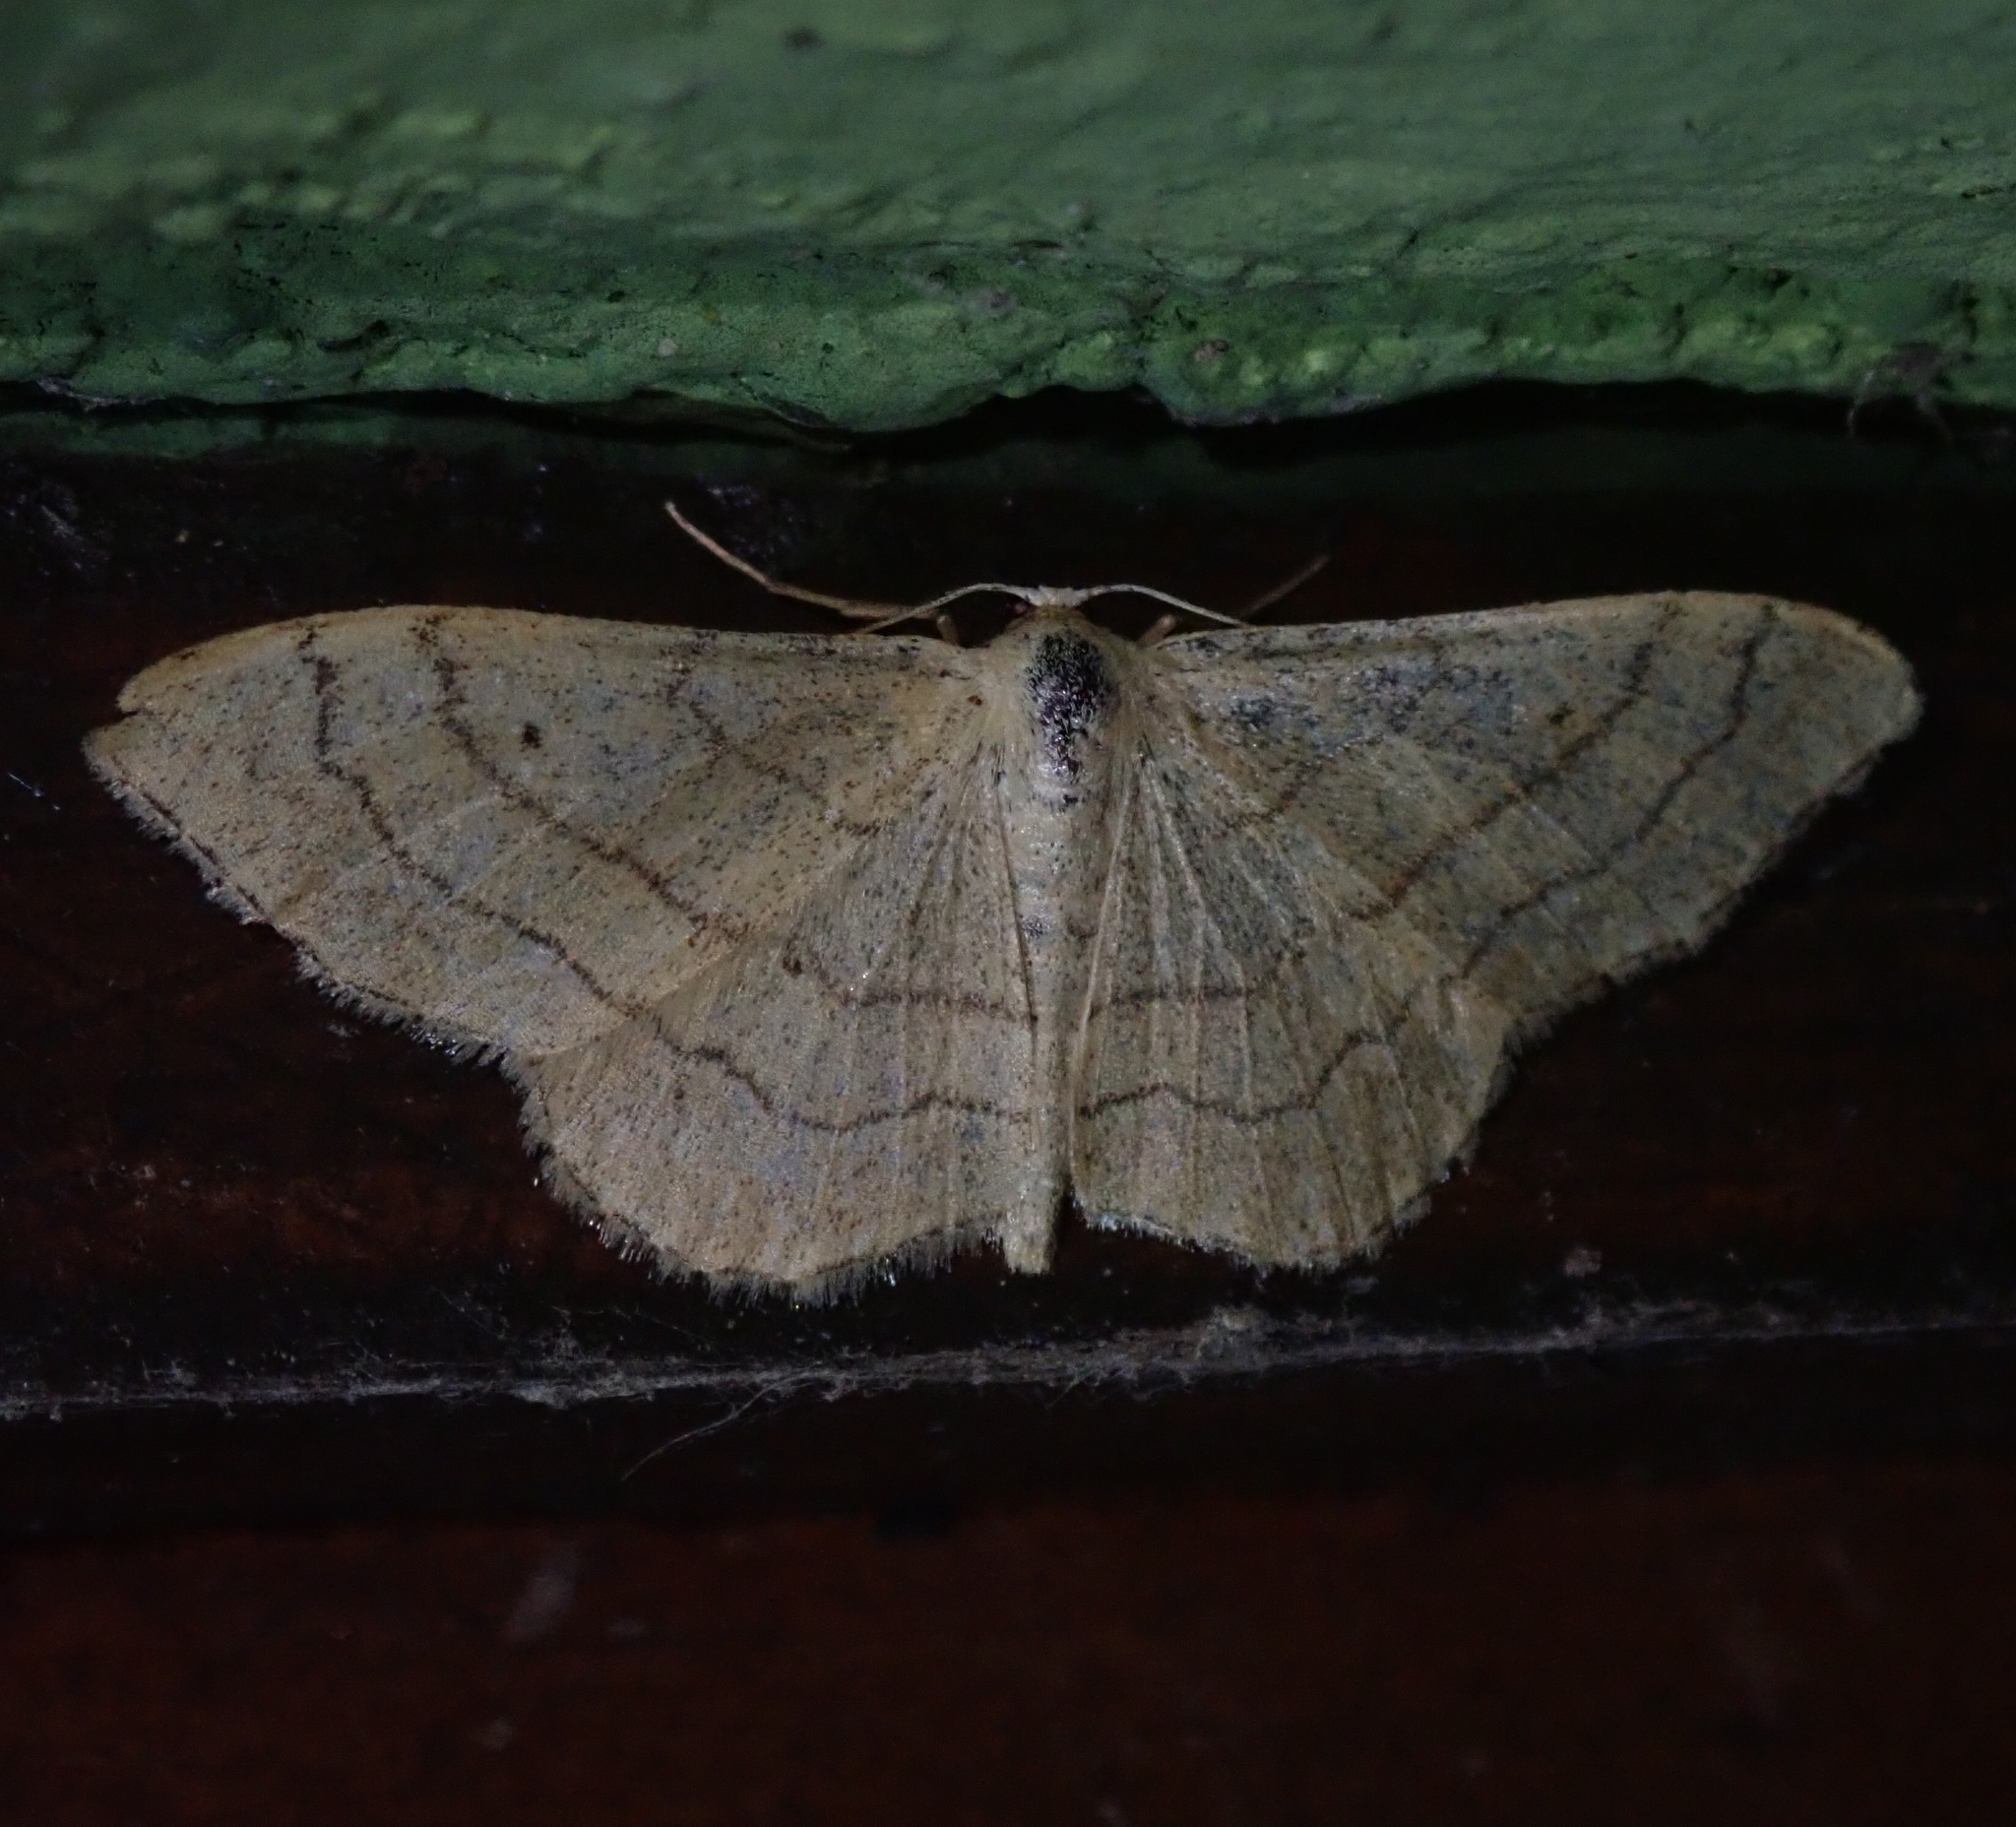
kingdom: Animalia
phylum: Arthropoda
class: Insecta
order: Lepidoptera
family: Geometridae
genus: Idaea
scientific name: Idaea aversata
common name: Riband wave
